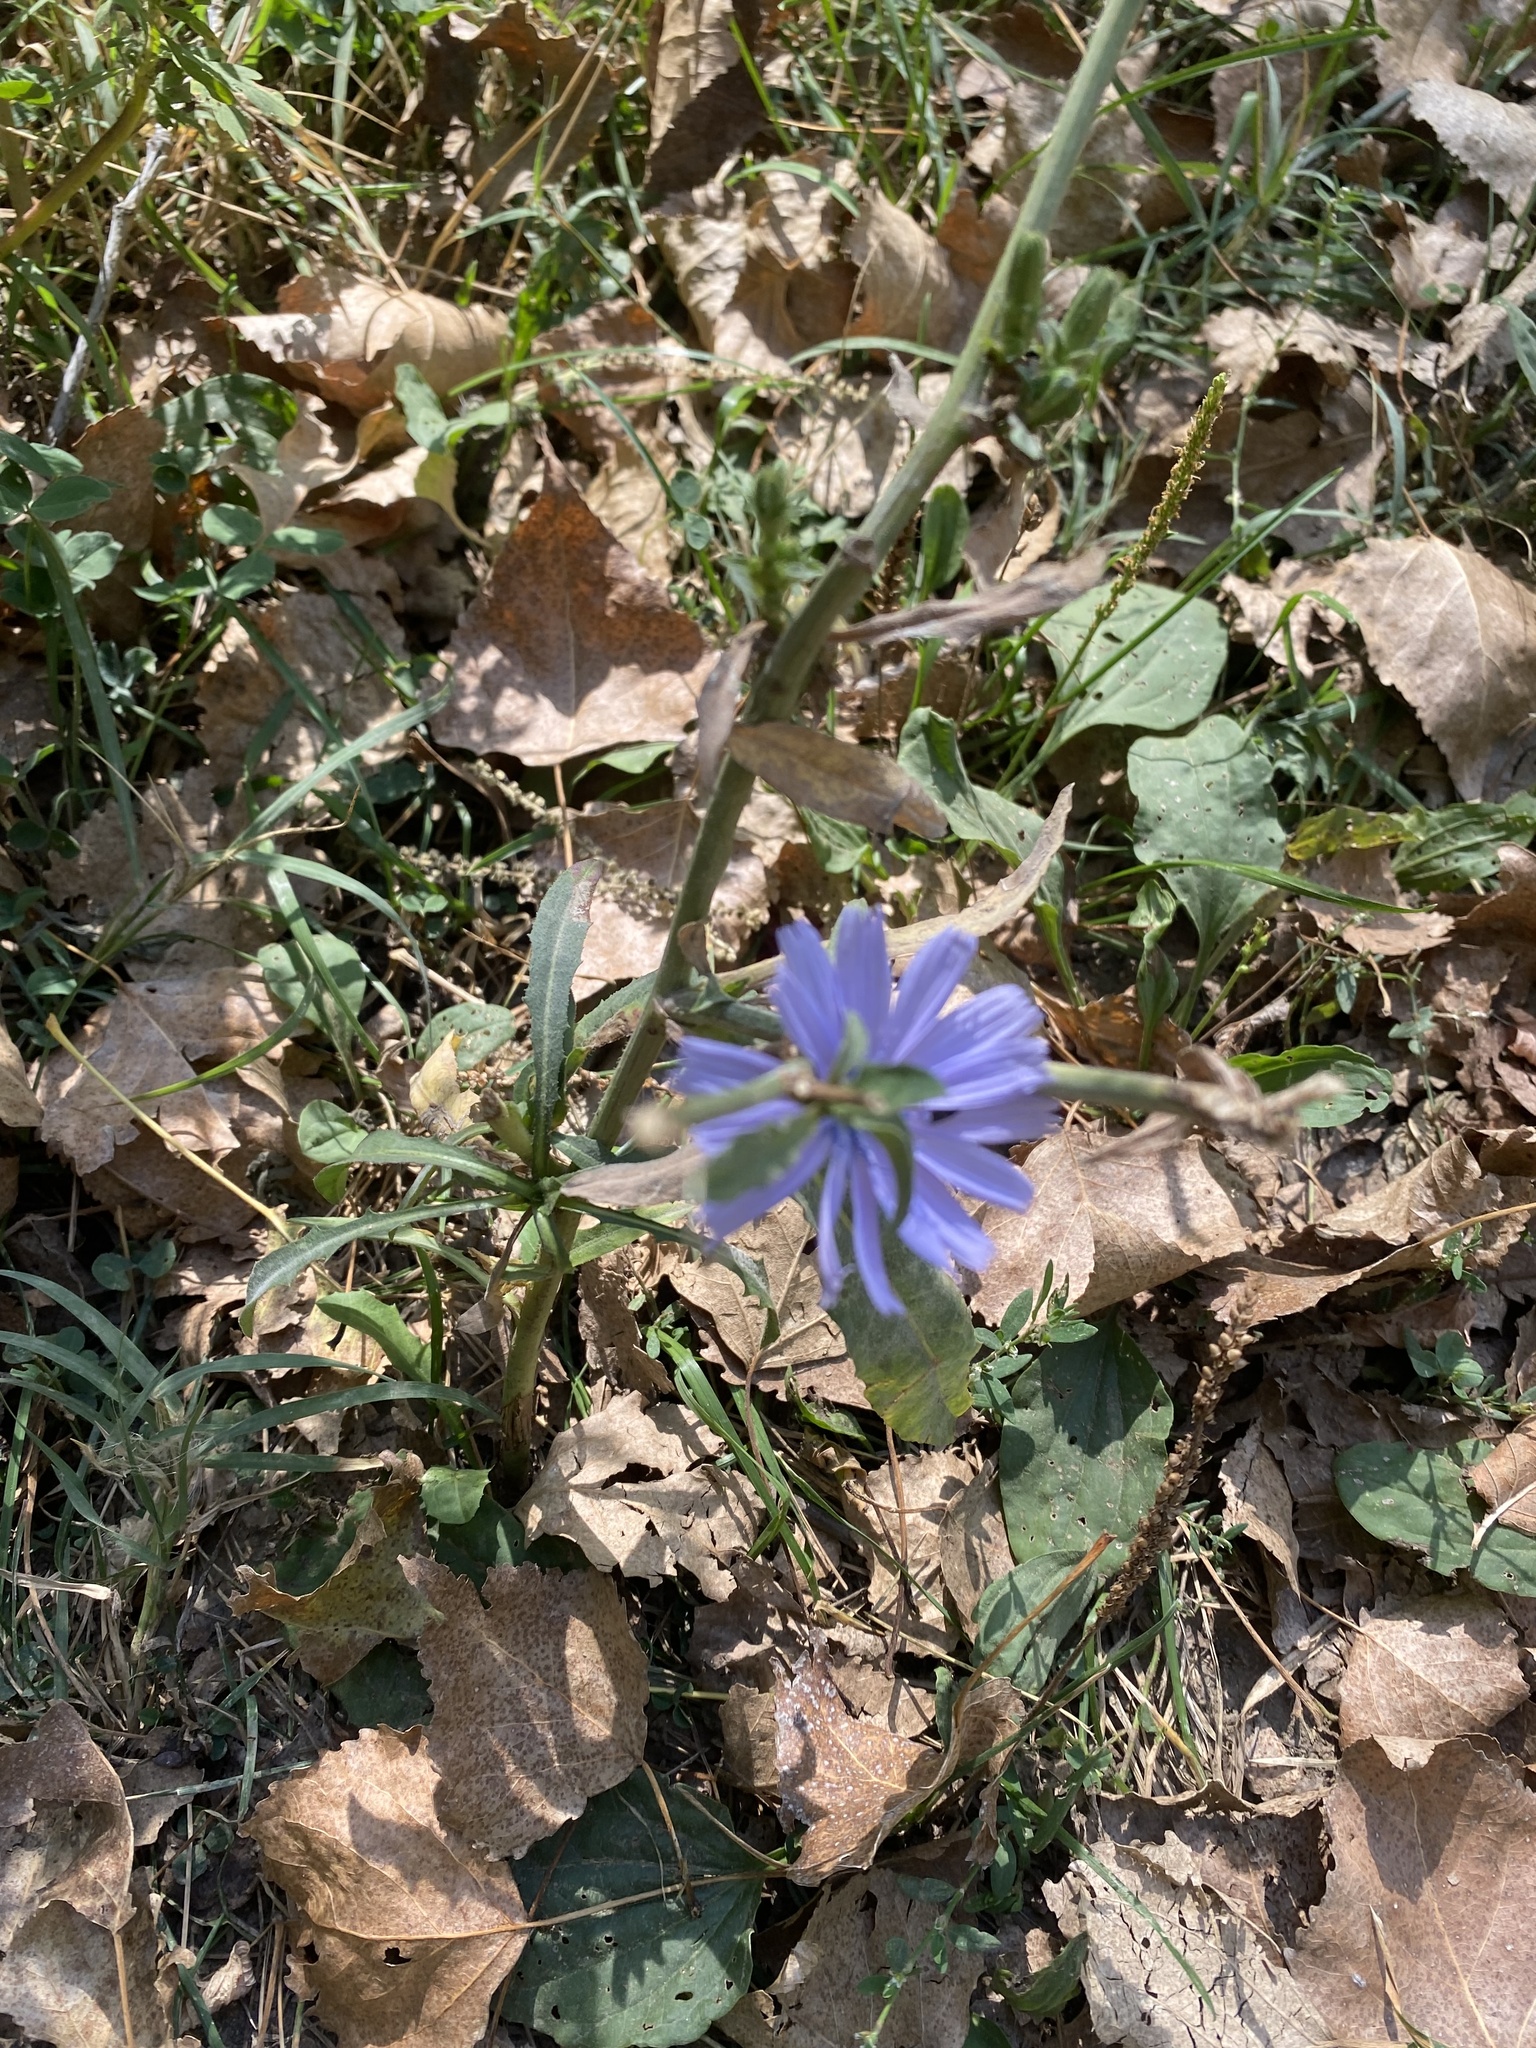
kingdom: Plantae
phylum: Tracheophyta
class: Magnoliopsida
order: Asterales
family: Asteraceae
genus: Cichorium
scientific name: Cichorium intybus
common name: Chicory
